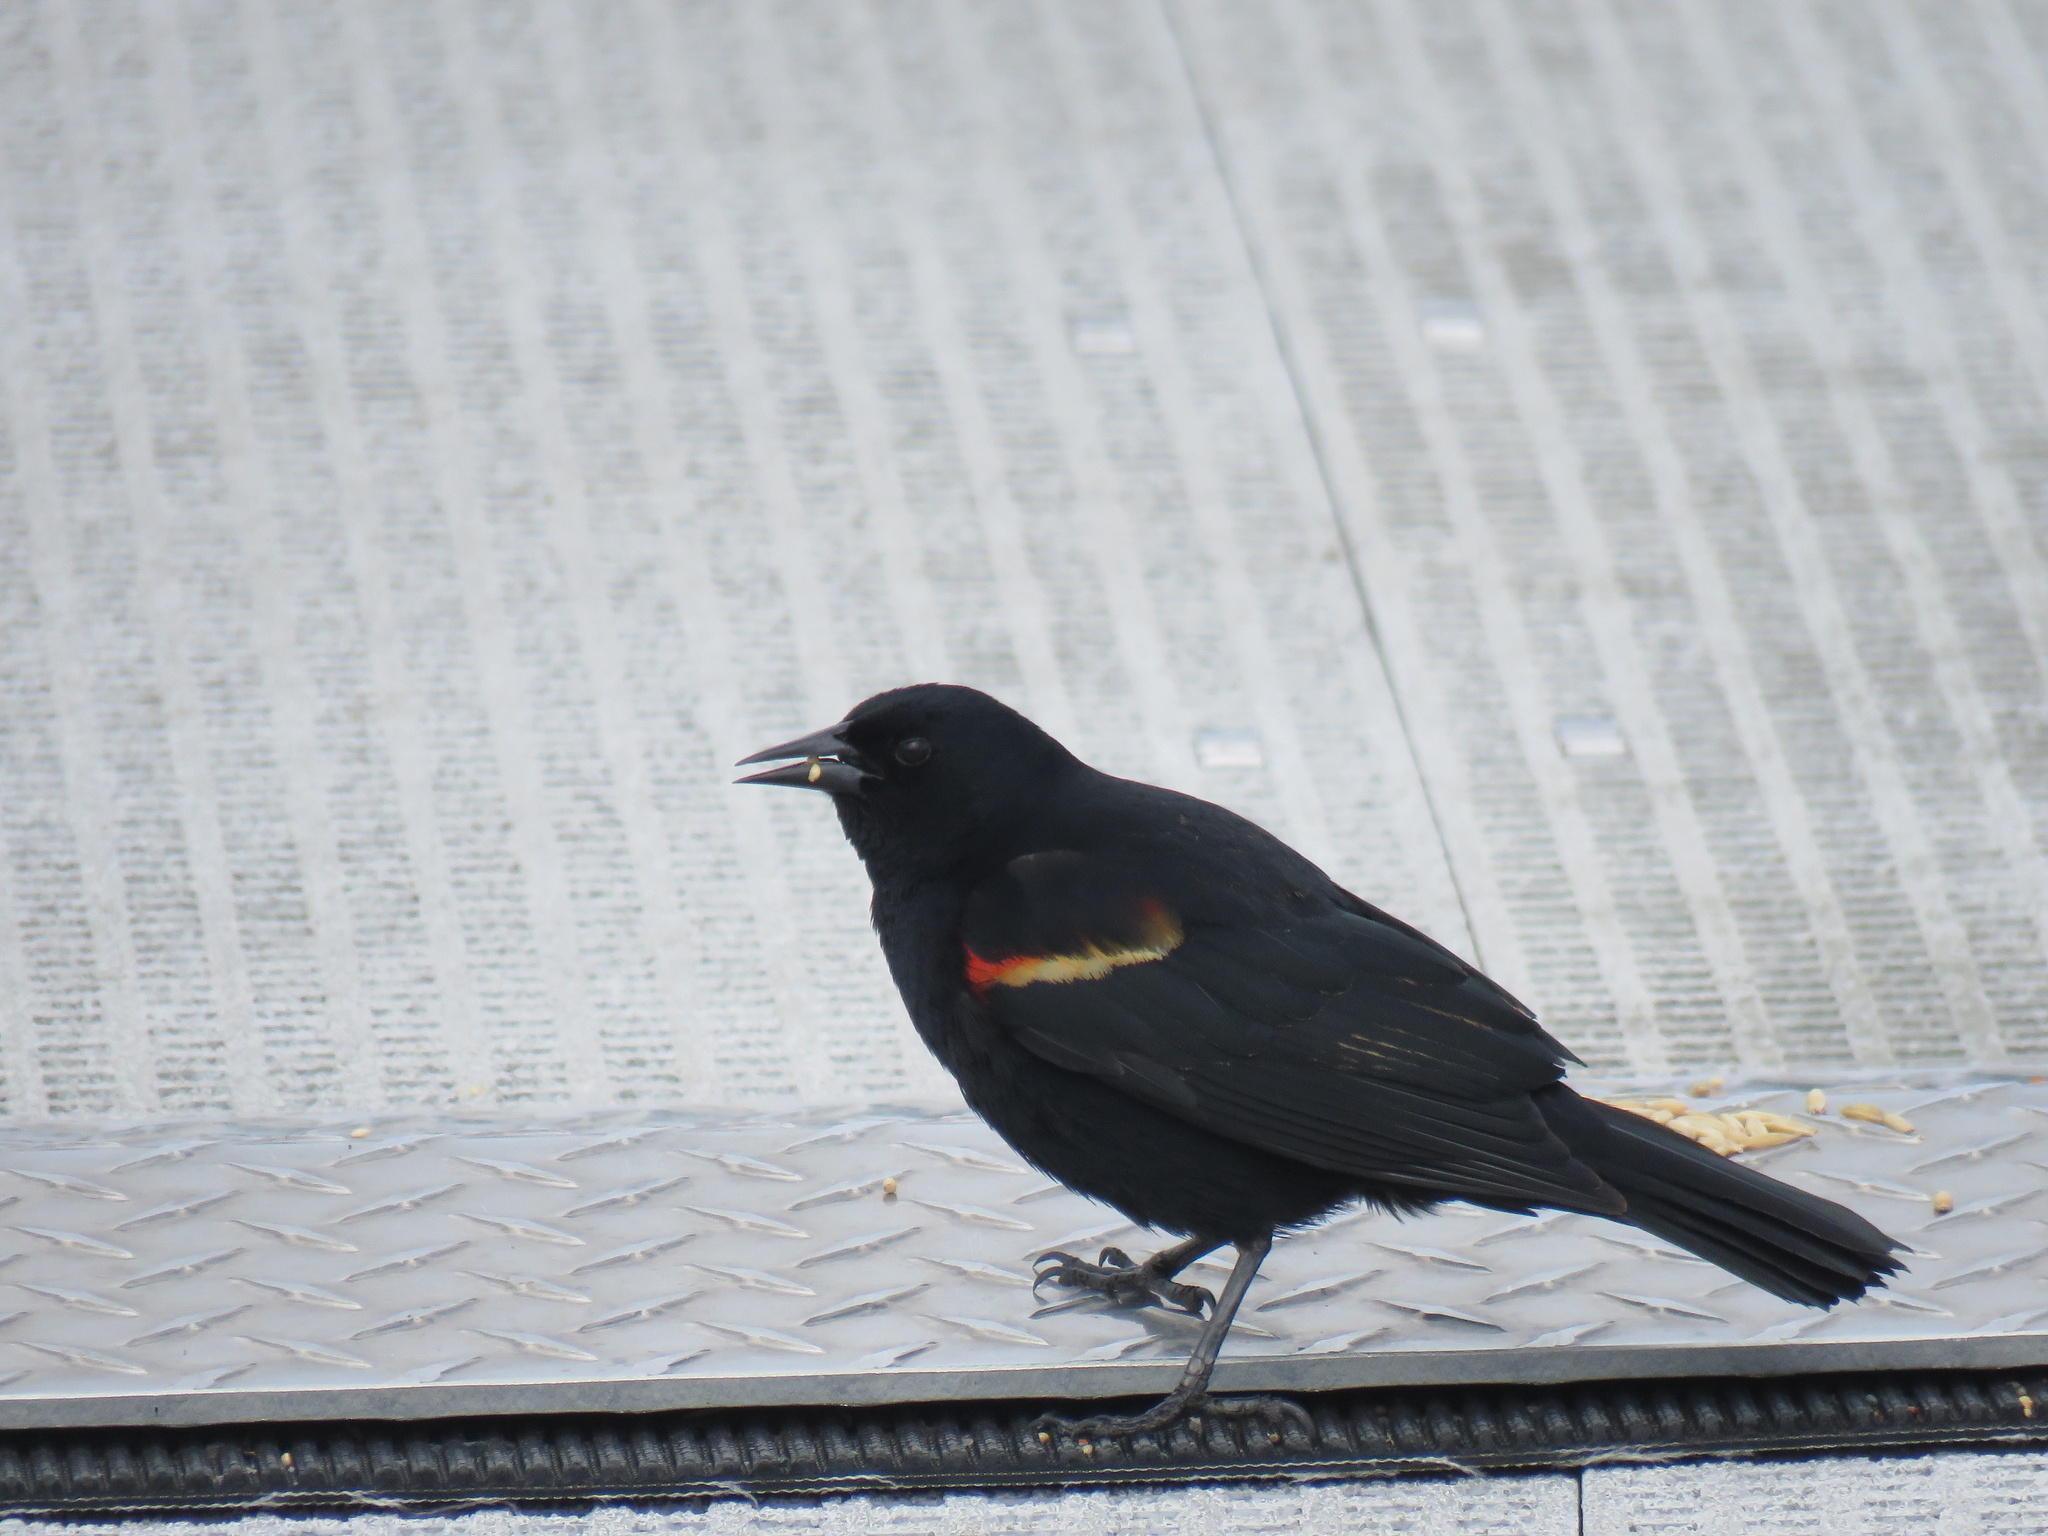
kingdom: Animalia
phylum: Chordata
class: Aves
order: Passeriformes
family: Icteridae
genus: Agelaius
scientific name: Agelaius phoeniceus
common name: Red-winged blackbird
